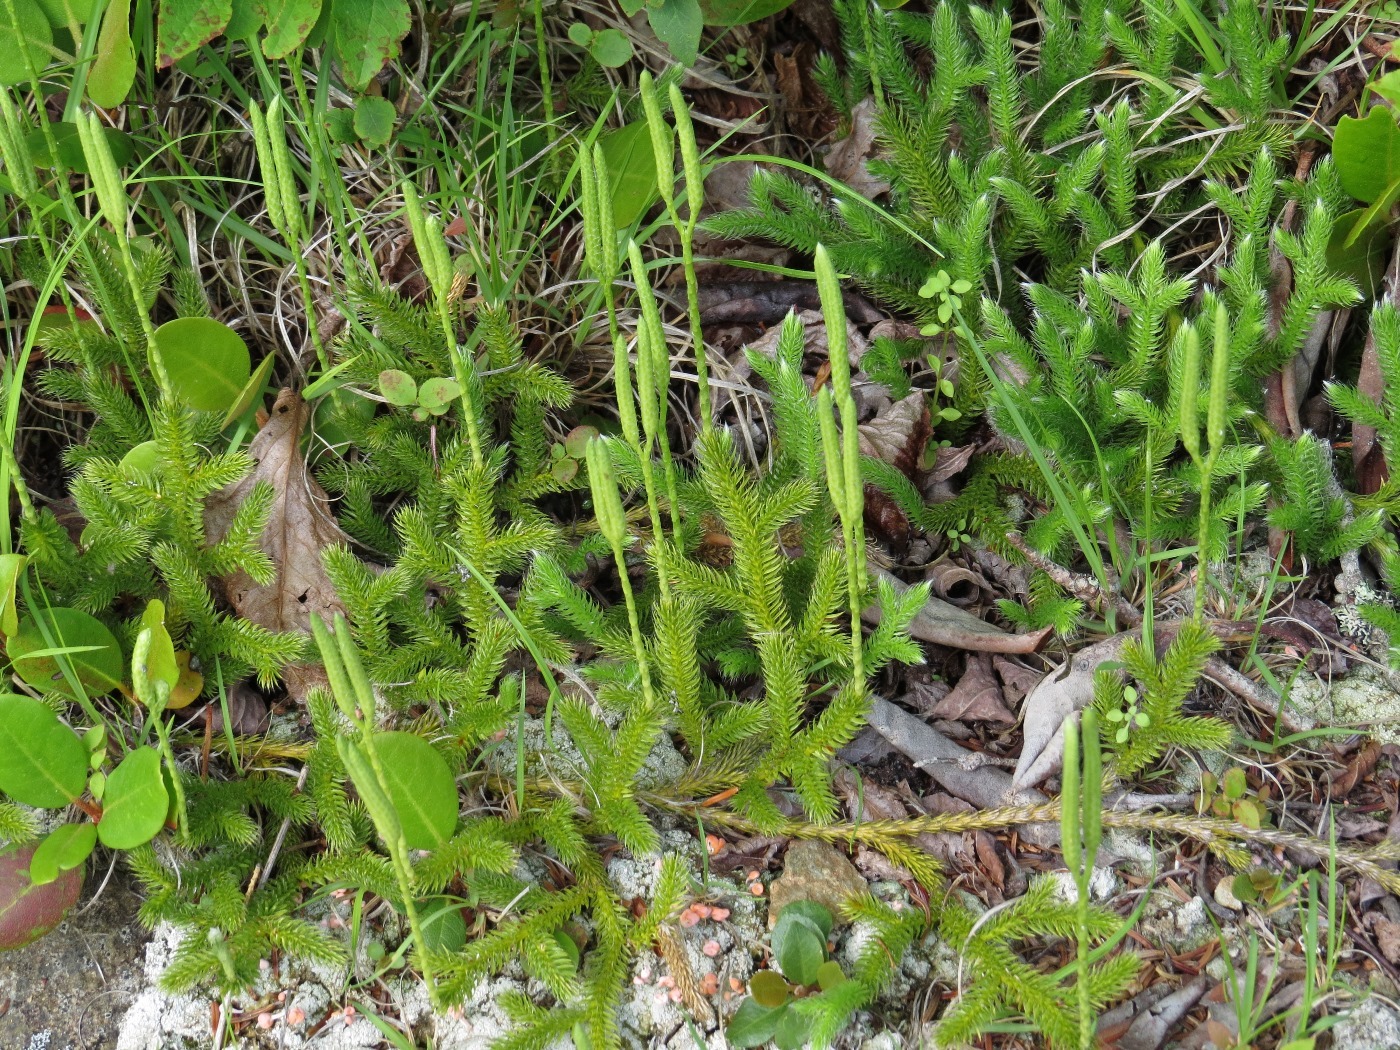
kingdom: Plantae
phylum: Tracheophyta
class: Lycopodiopsida
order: Lycopodiales
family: Lycopodiaceae
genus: Lycopodium
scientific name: Lycopodium clavatum
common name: Stag's-horn clubmoss
